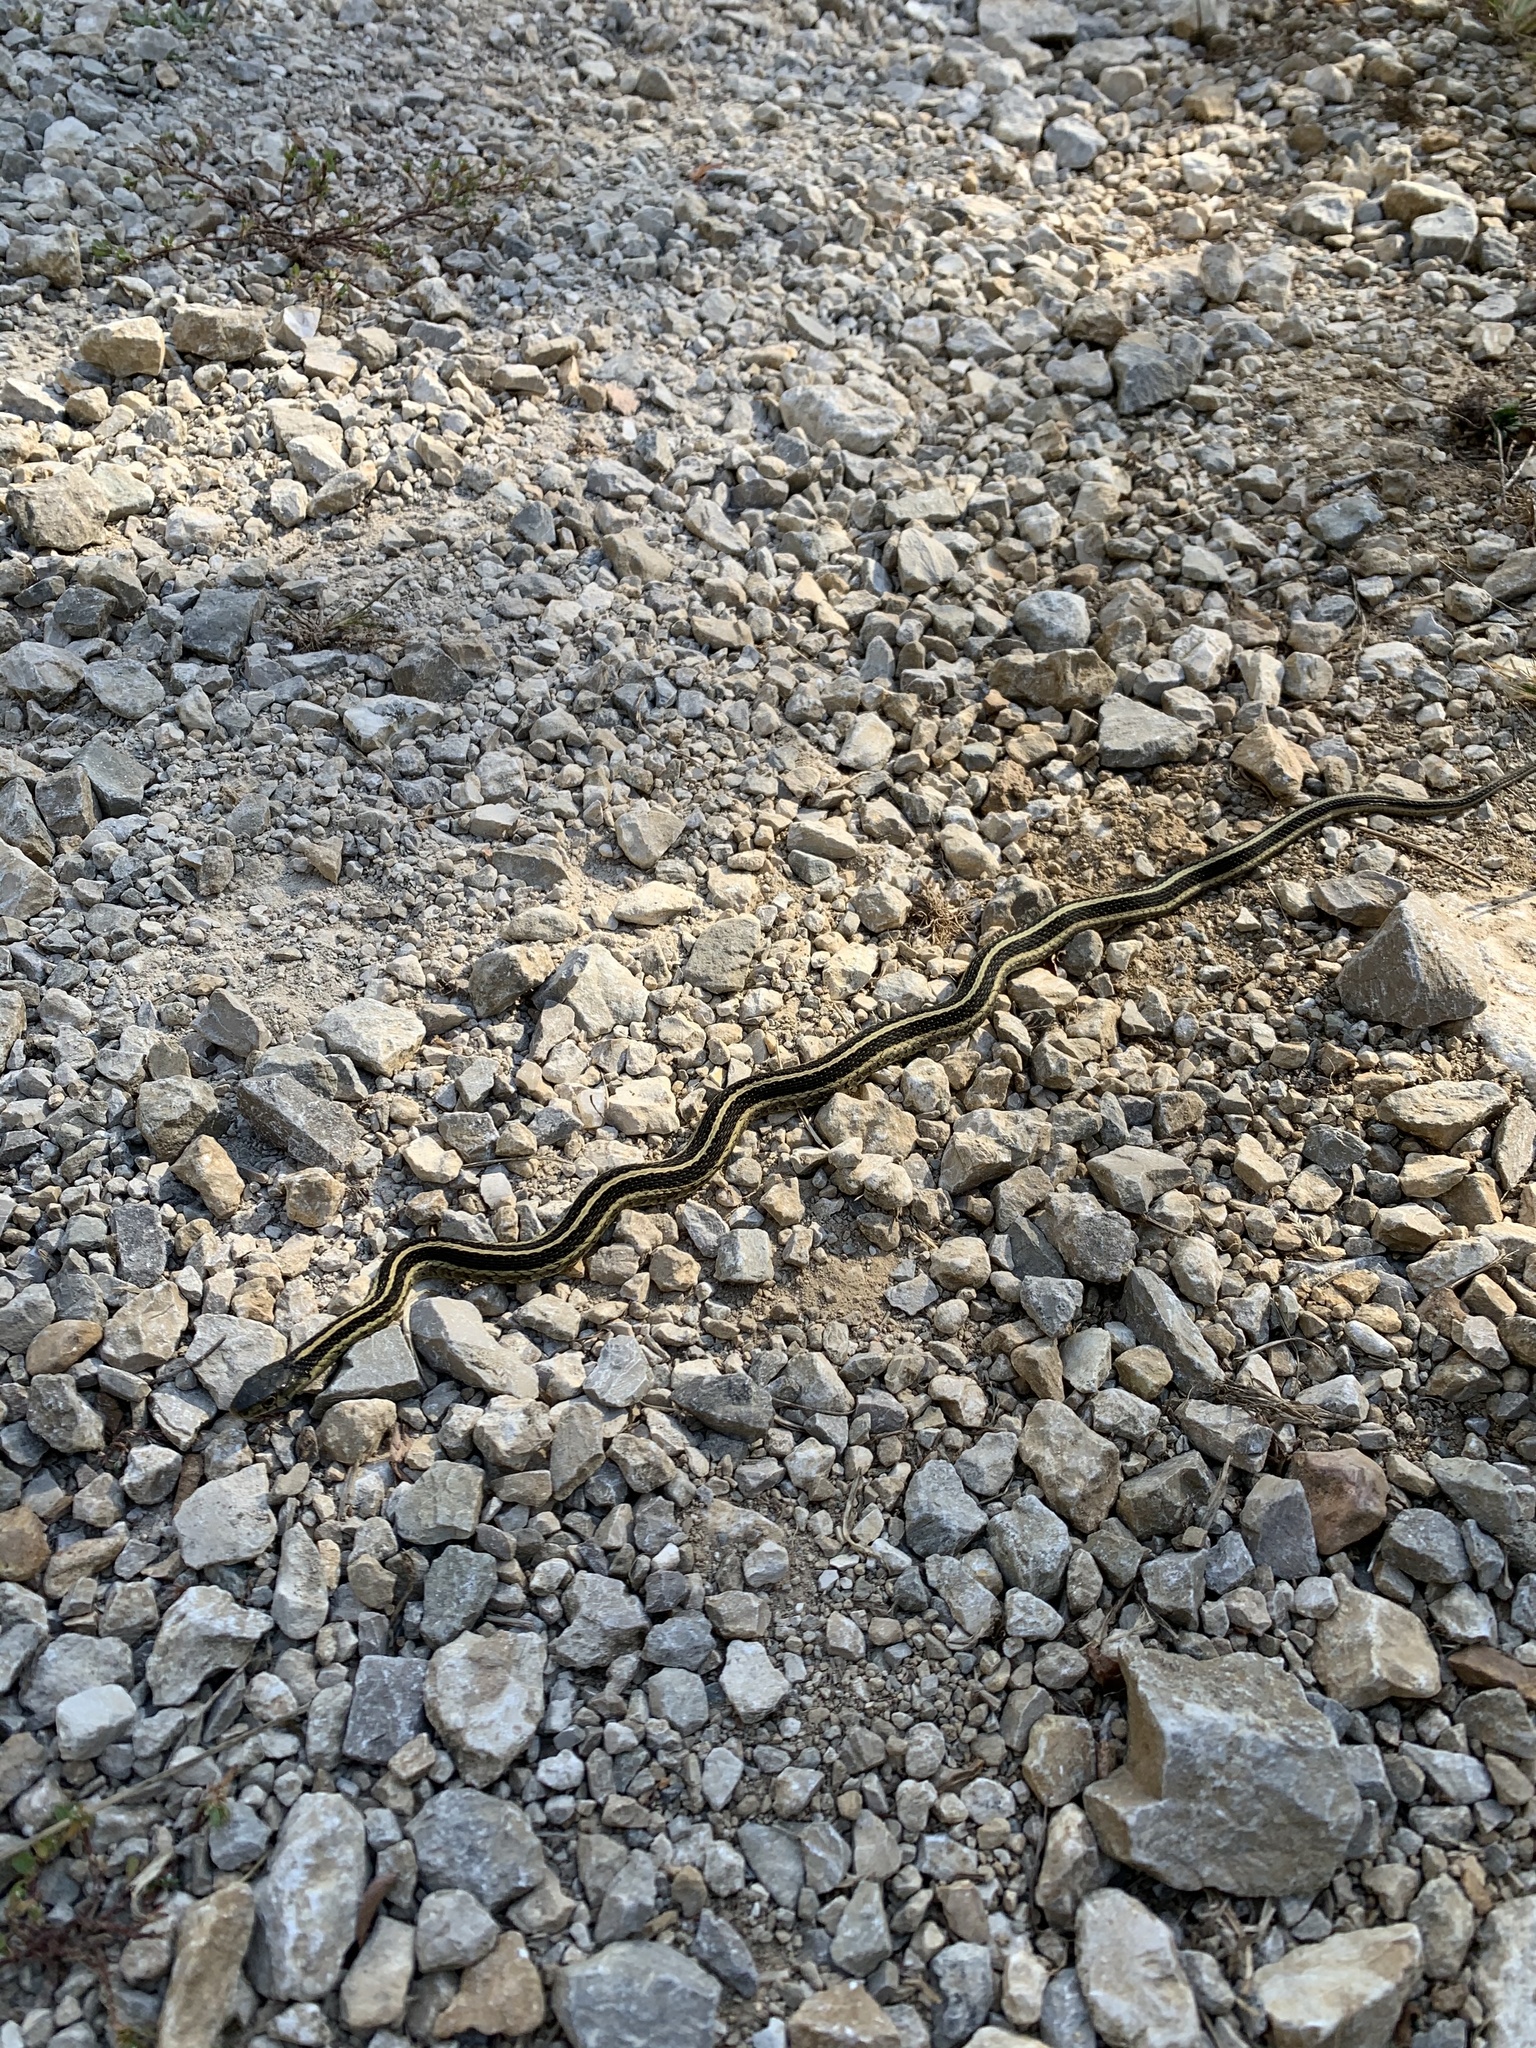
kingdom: Animalia
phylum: Chordata
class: Squamata
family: Colubridae
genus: Thamnophis
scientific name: Thamnophis sirtalis
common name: Common garter snake
